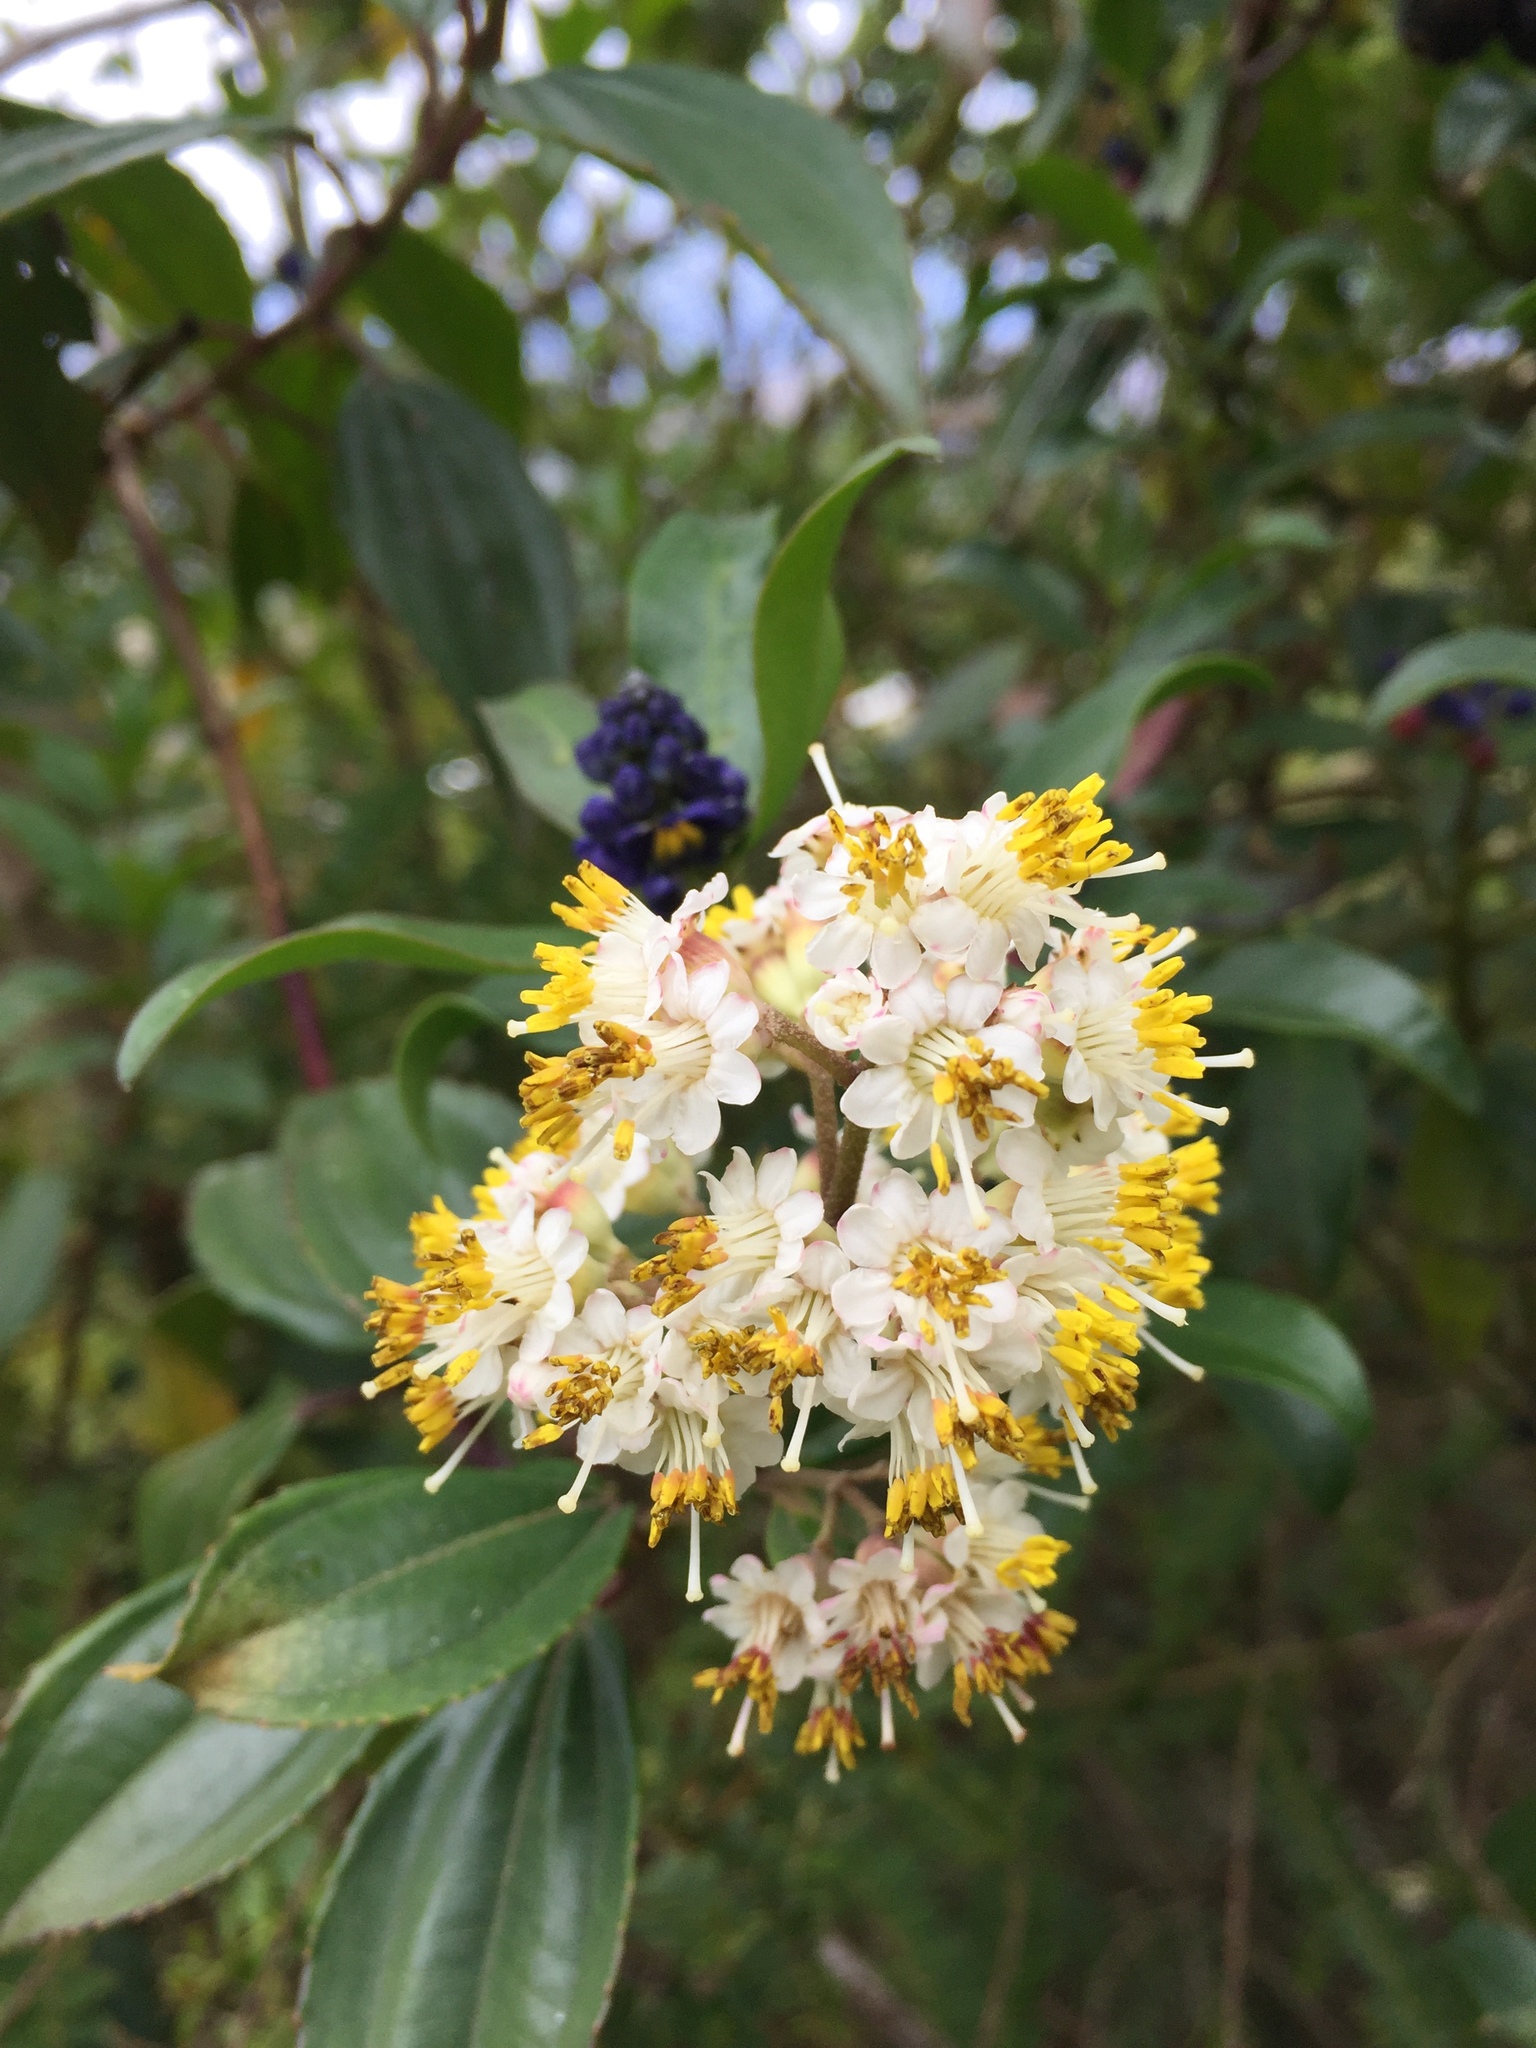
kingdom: Plantae
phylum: Tracheophyta
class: Magnoliopsida
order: Myrtales
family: Melastomataceae
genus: Miconia
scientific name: Miconia crocea
